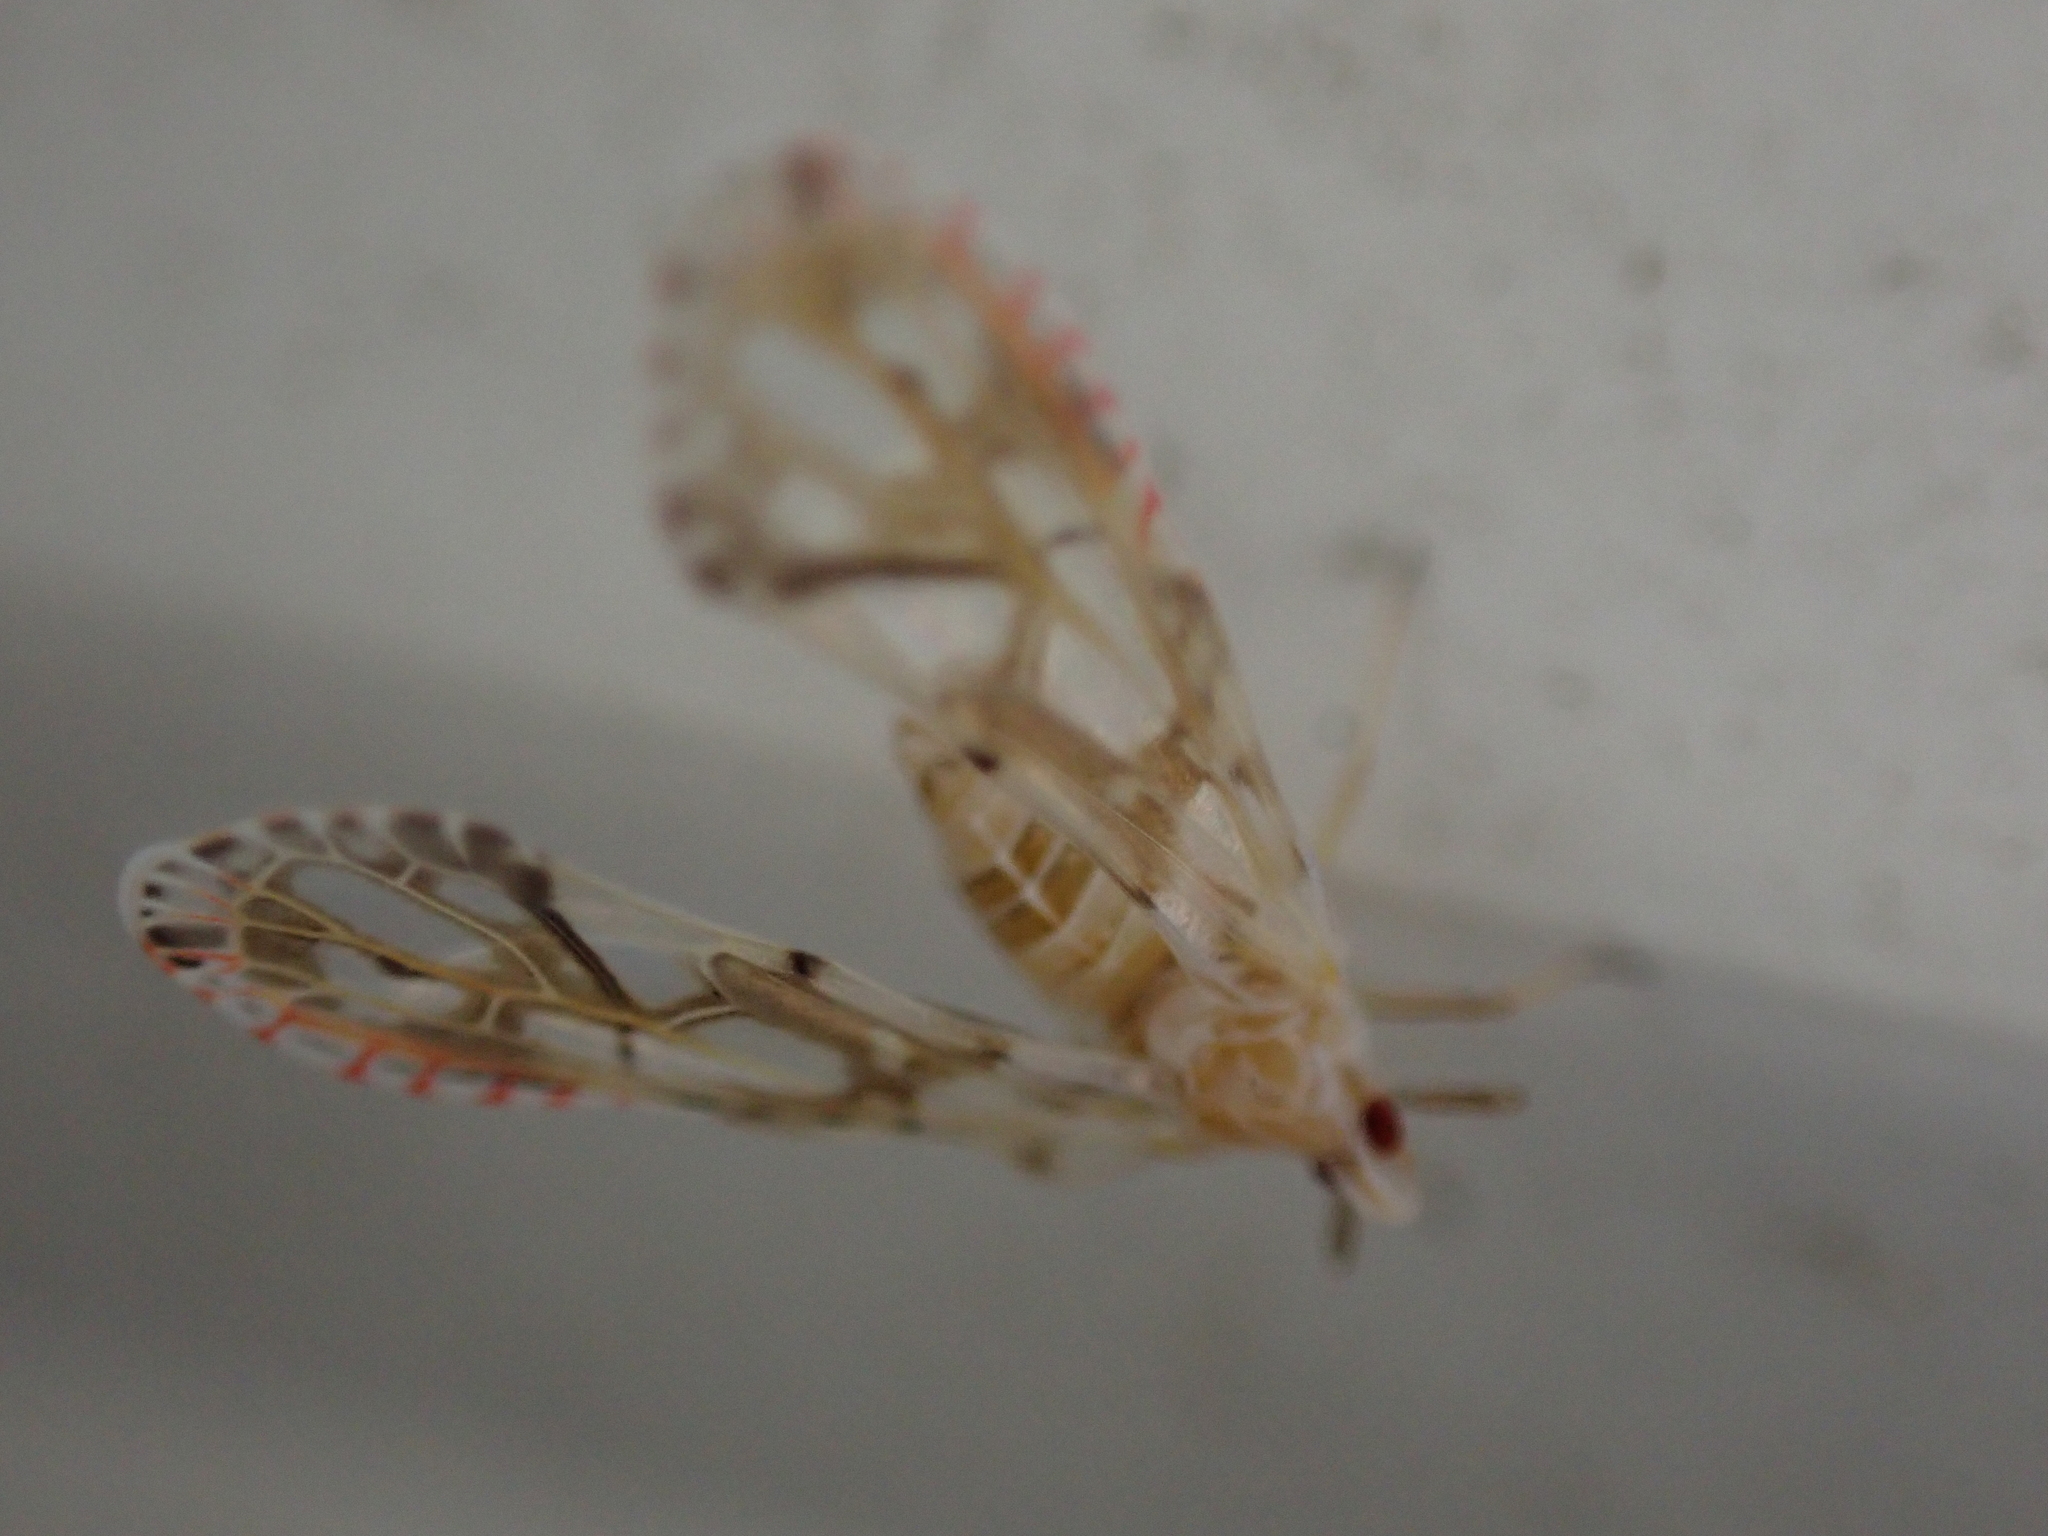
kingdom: Animalia
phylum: Arthropoda
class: Insecta
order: Hemiptera
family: Derbidae
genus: Anotia
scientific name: Anotia kirkaldyi
